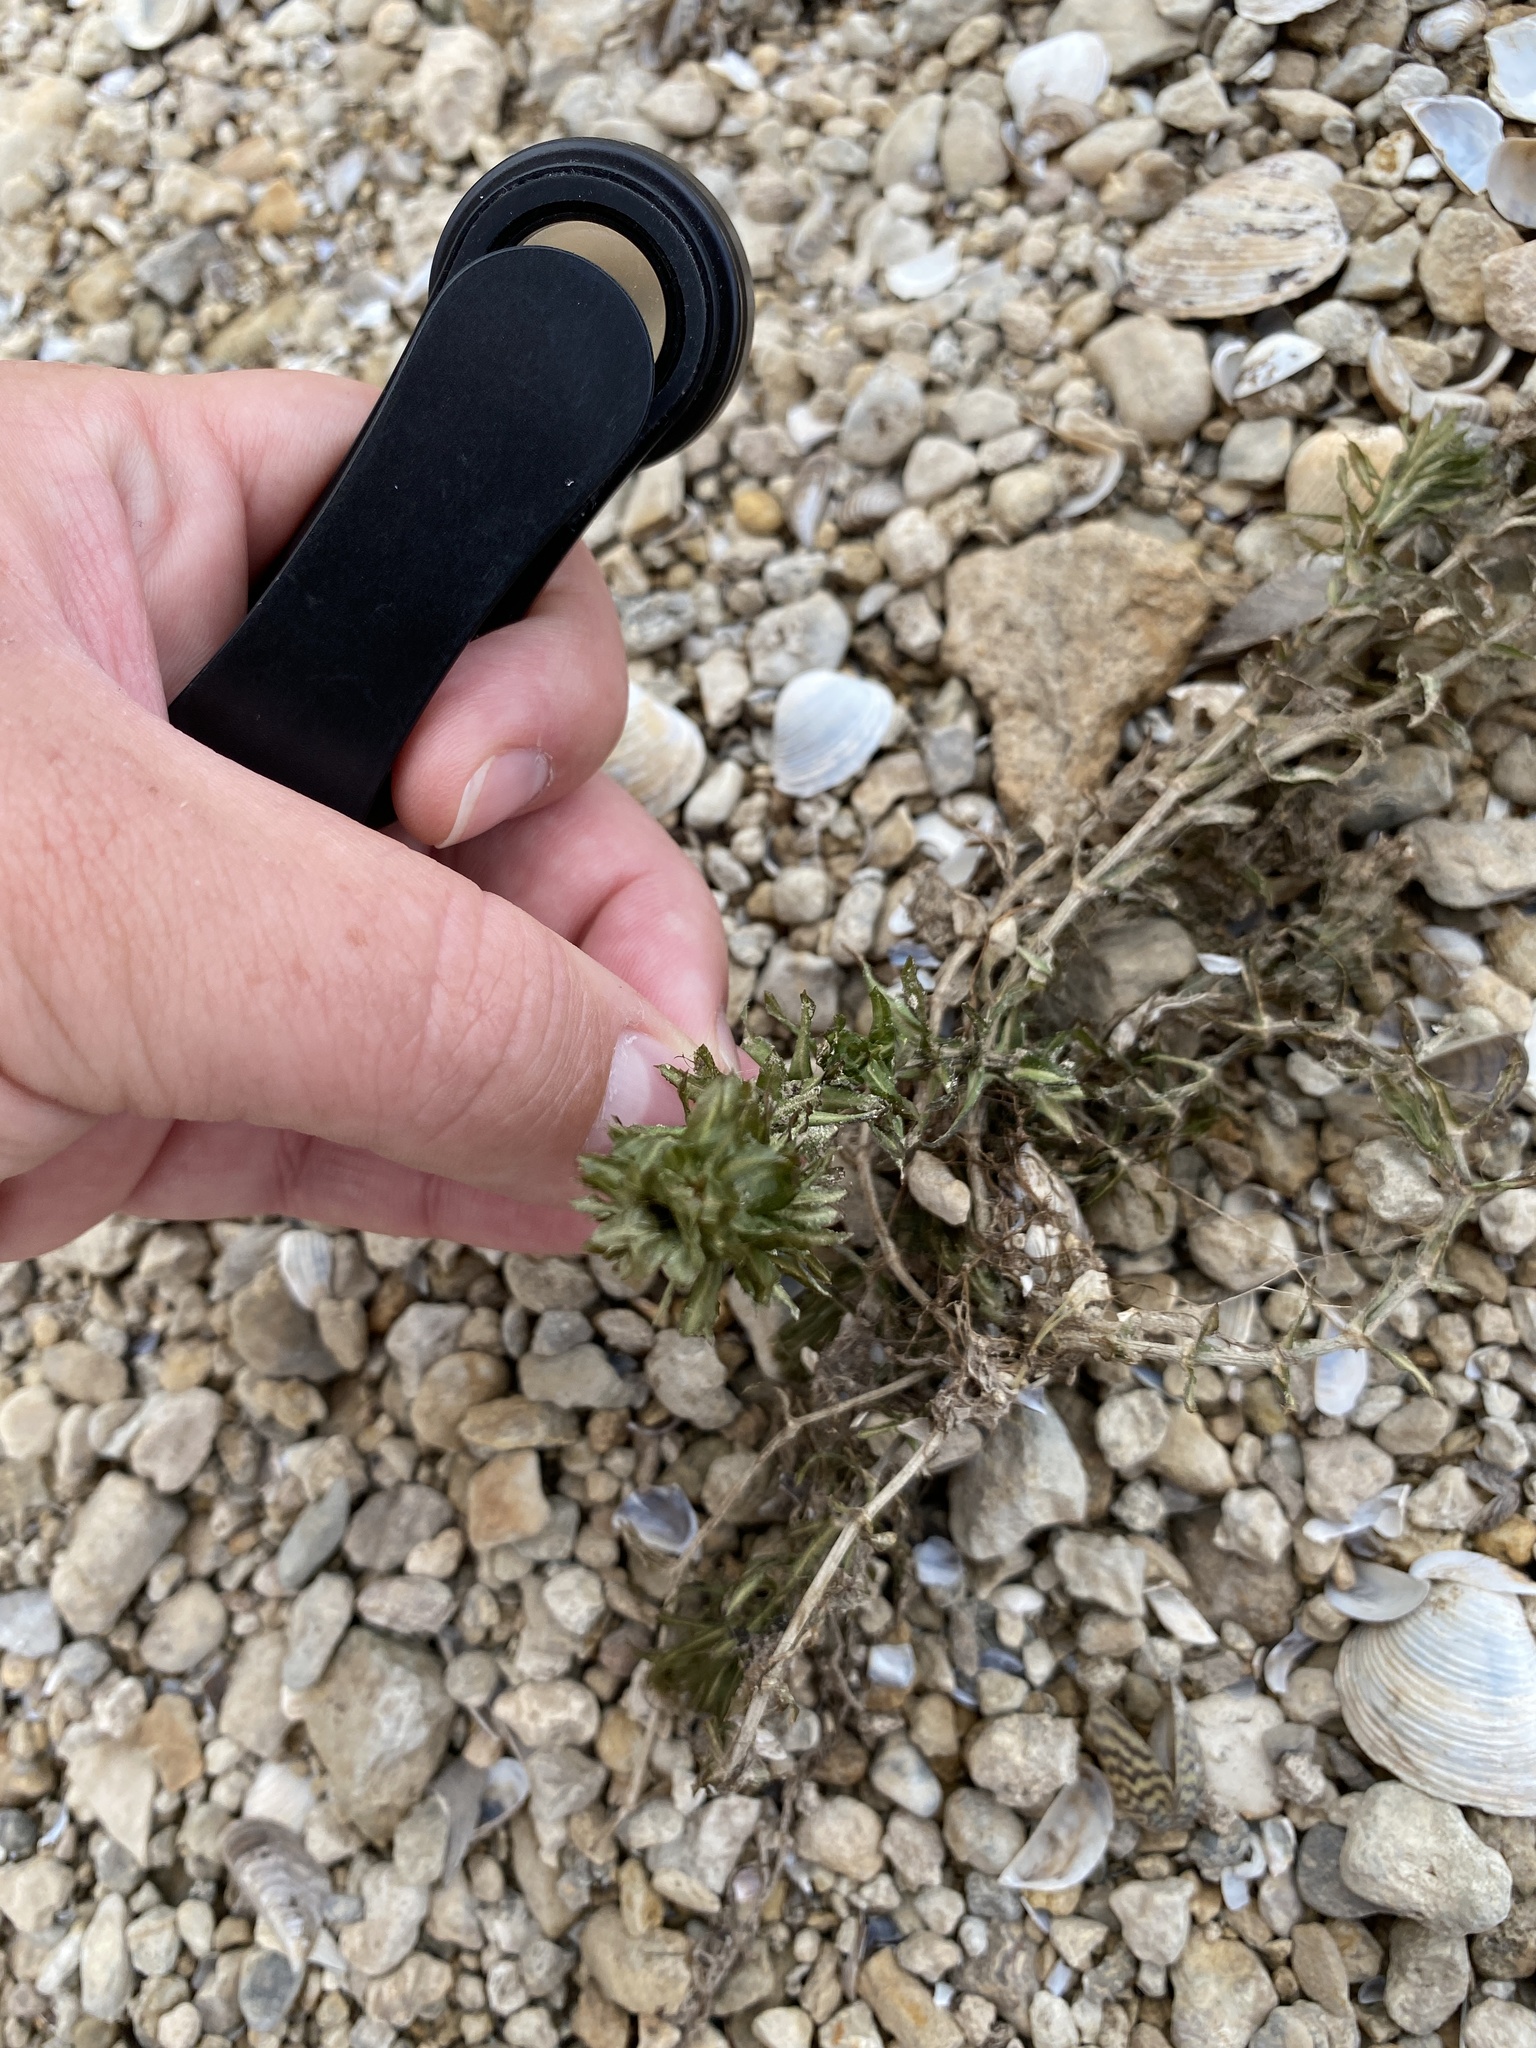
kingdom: Plantae
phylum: Tracheophyta
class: Liliopsida
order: Alismatales
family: Hydrocharitaceae
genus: Hydrilla
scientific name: Hydrilla verticillata
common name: Florida-elodea
